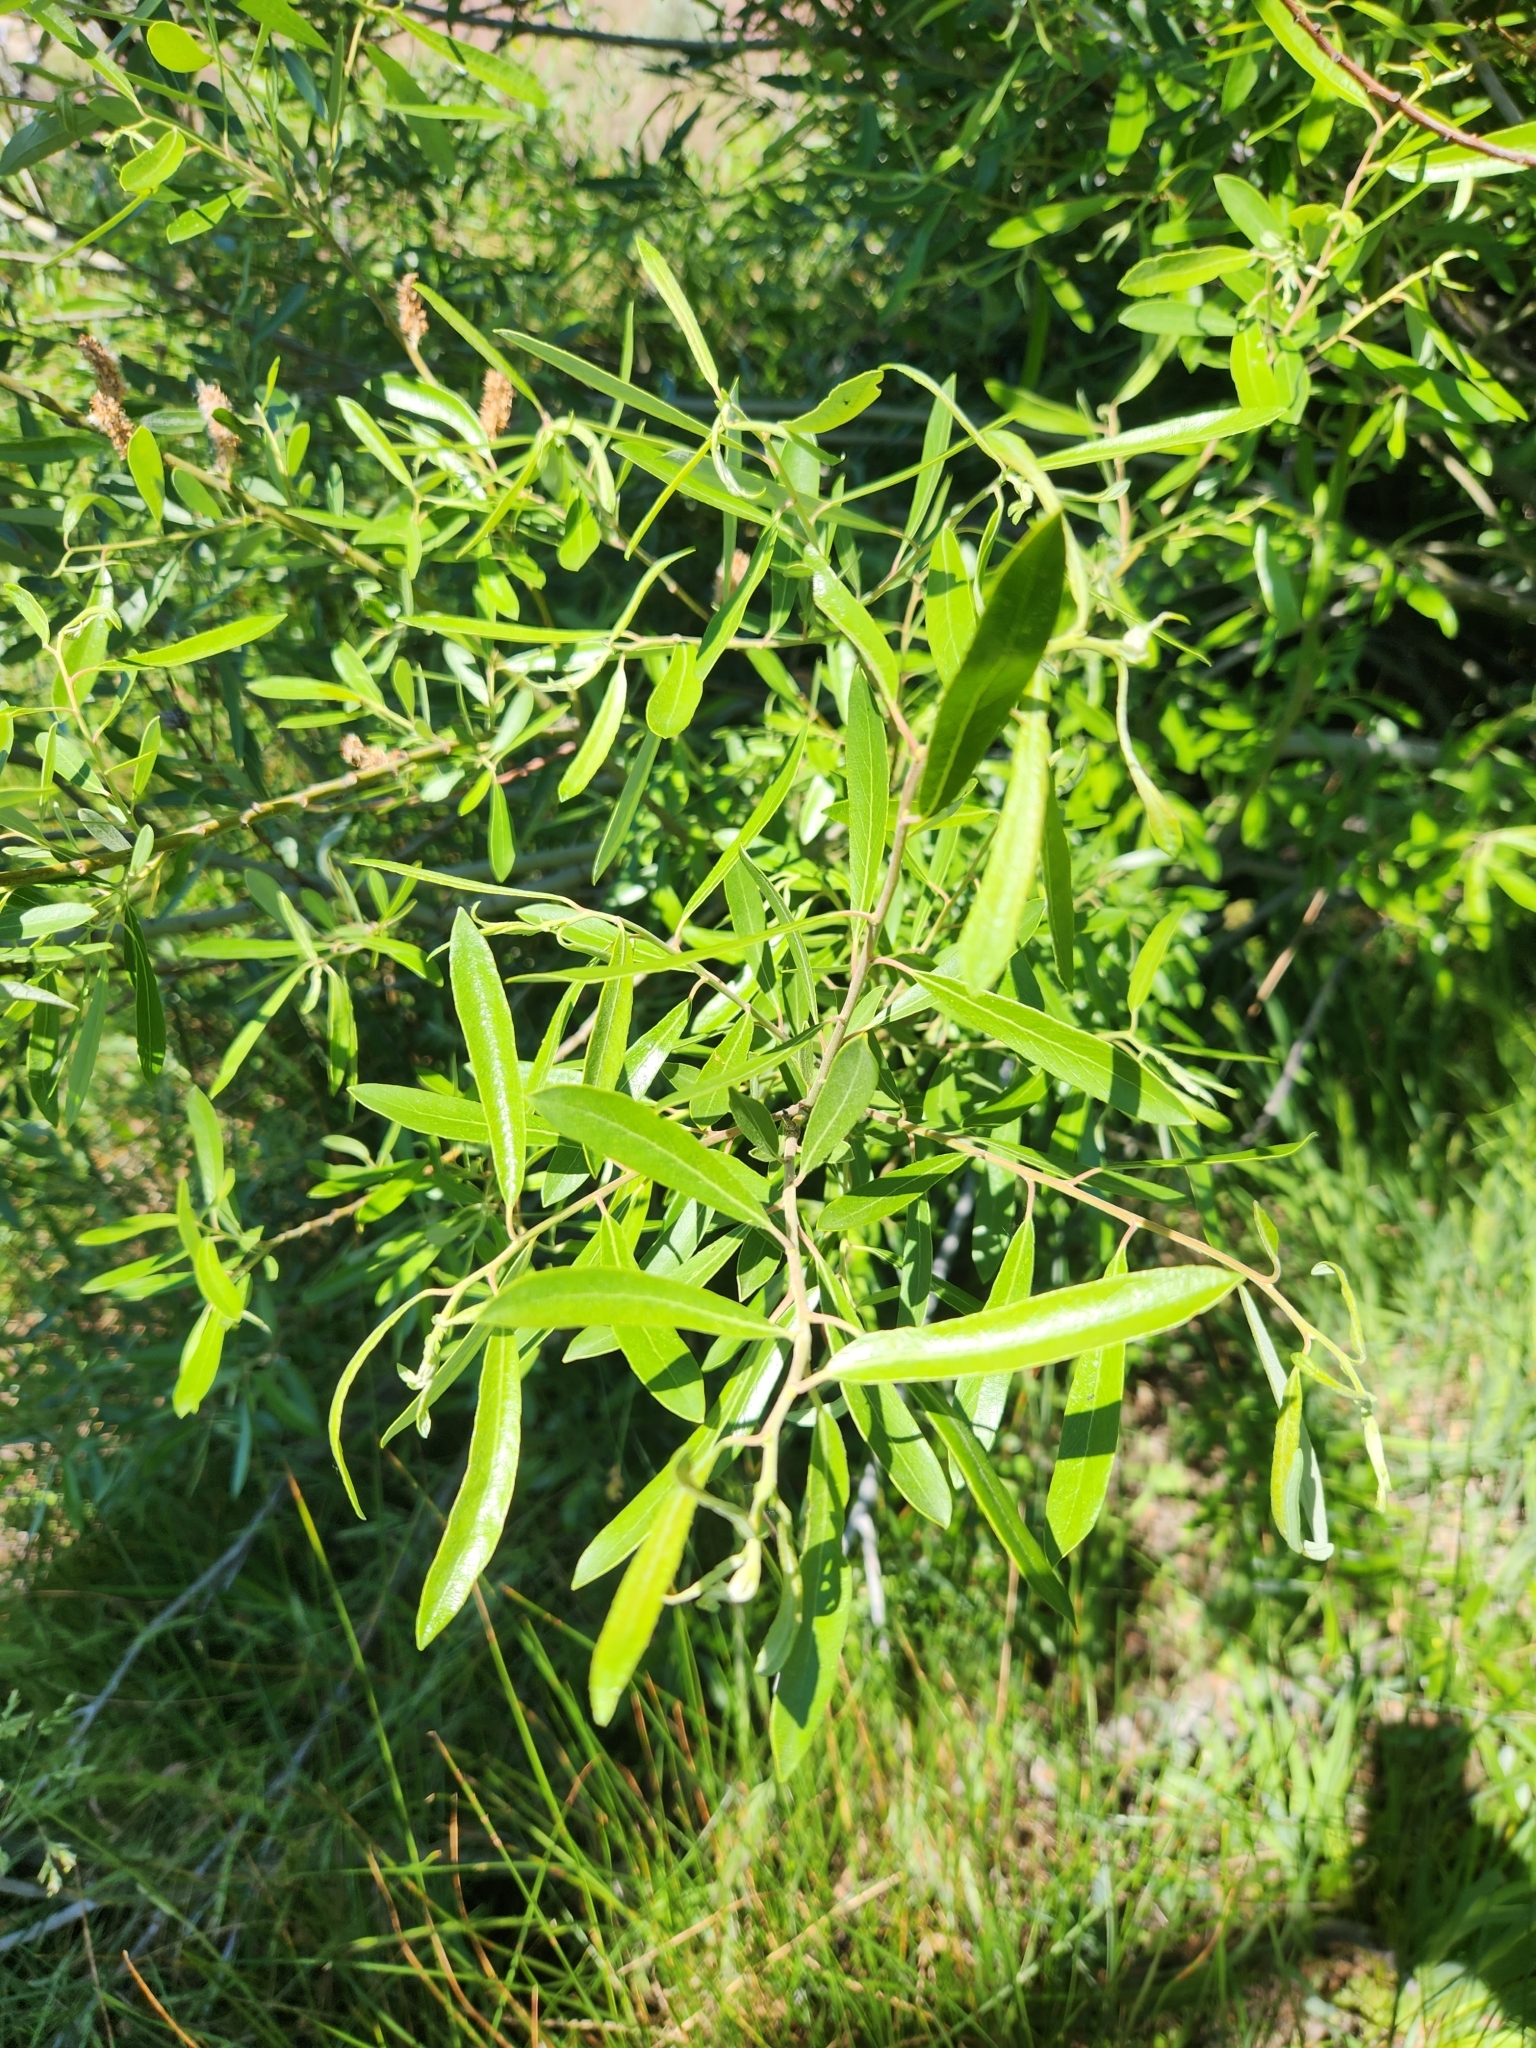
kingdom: Plantae
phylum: Tracheophyta
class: Magnoliopsida
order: Malpighiales
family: Salicaceae
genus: Salix
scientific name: Salix lasiolepis
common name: Arroyo willow
